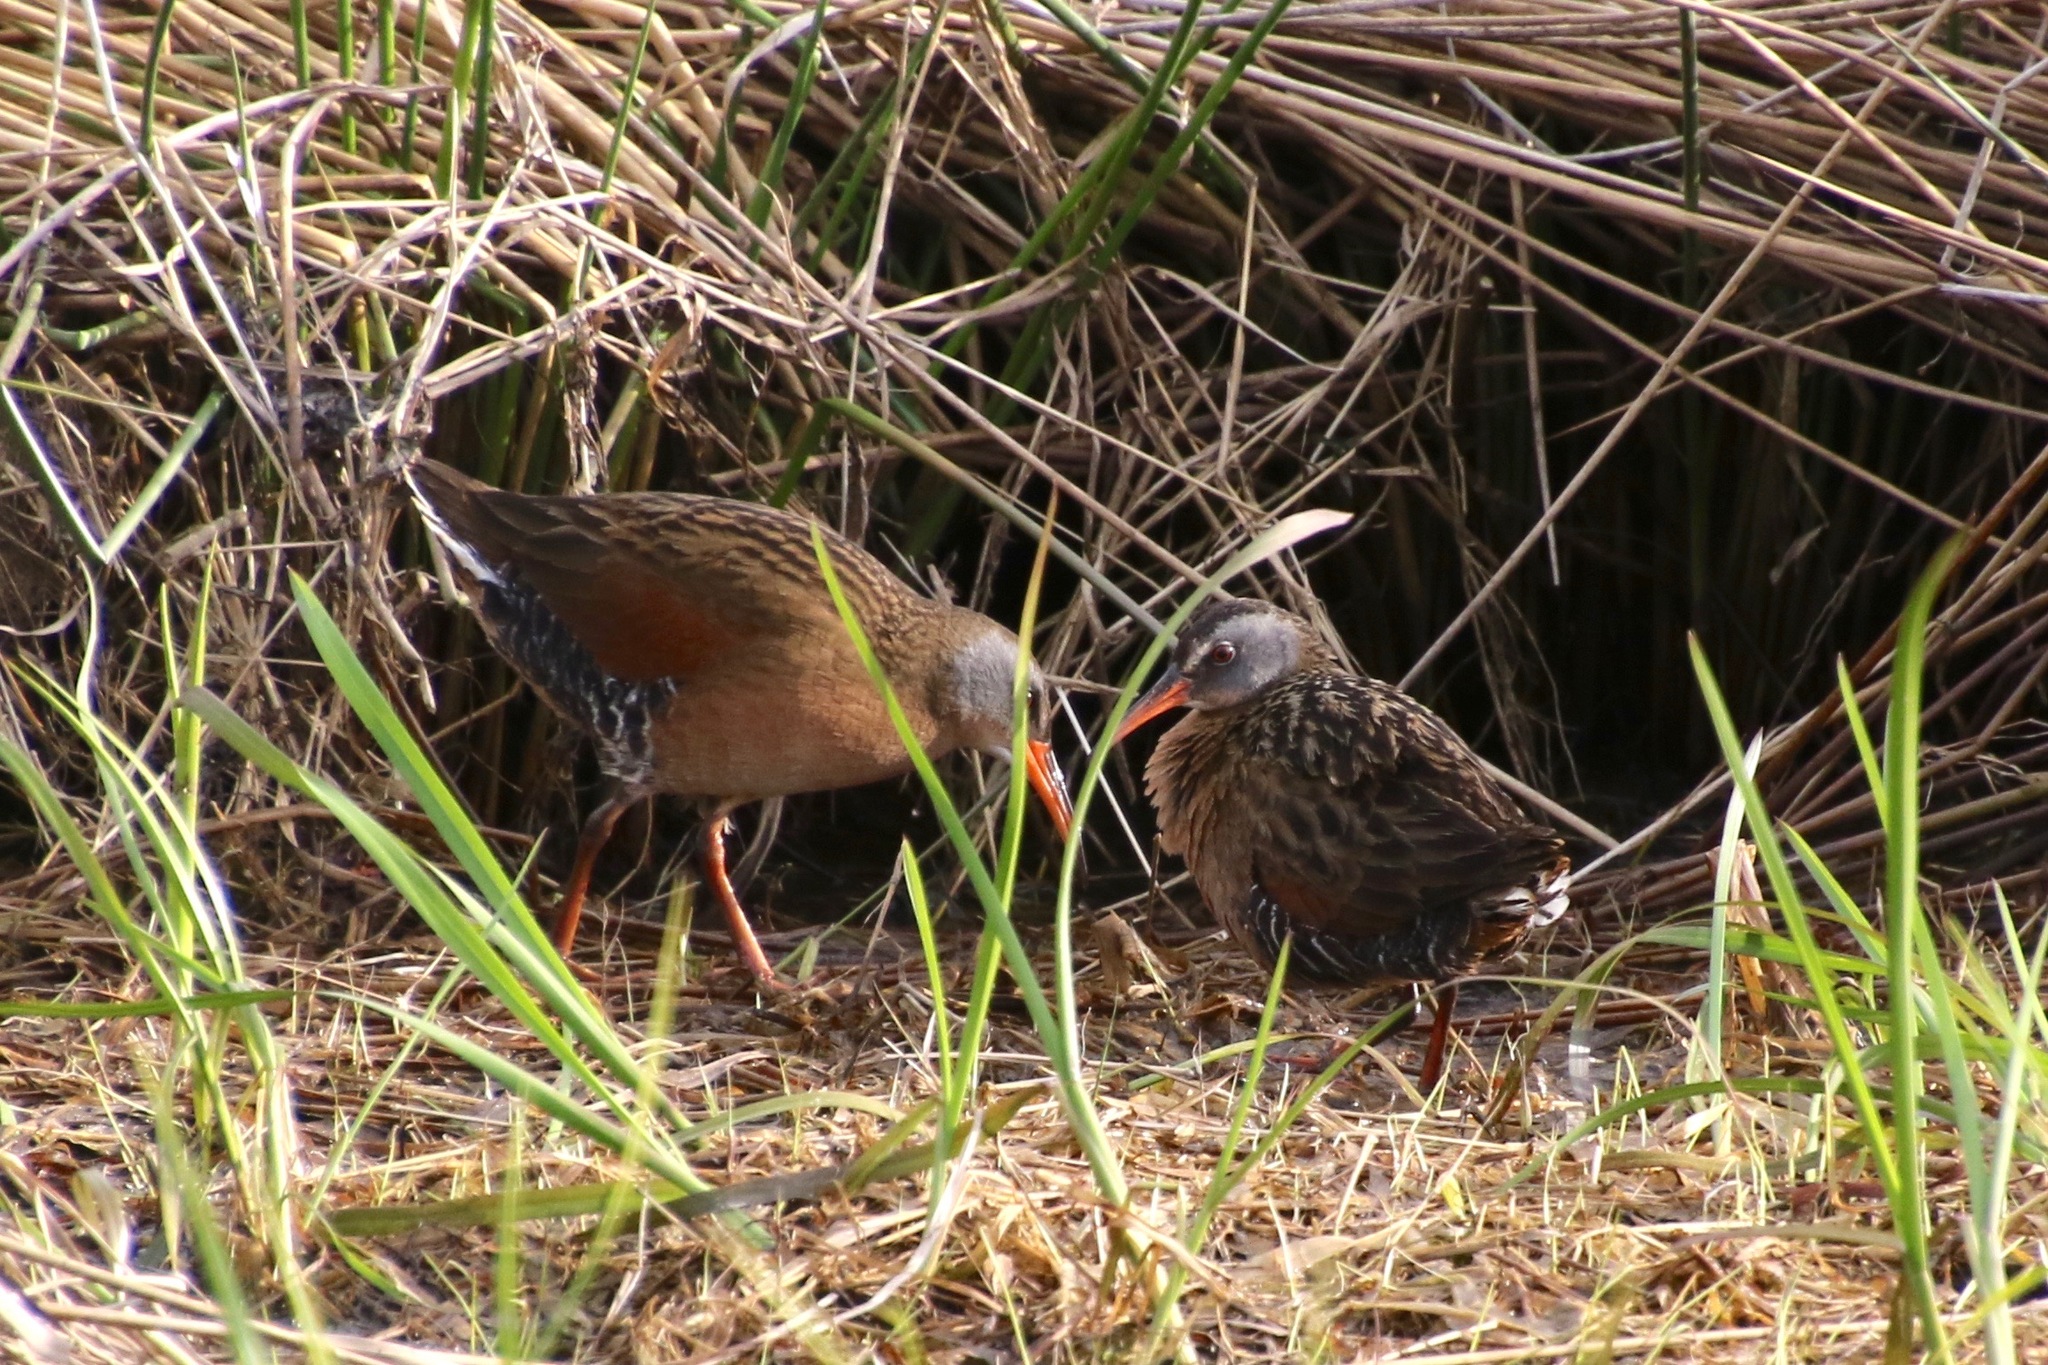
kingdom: Animalia
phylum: Chordata
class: Aves
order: Gruiformes
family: Rallidae
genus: Rallus
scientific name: Rallus limicola
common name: Virginia rail
